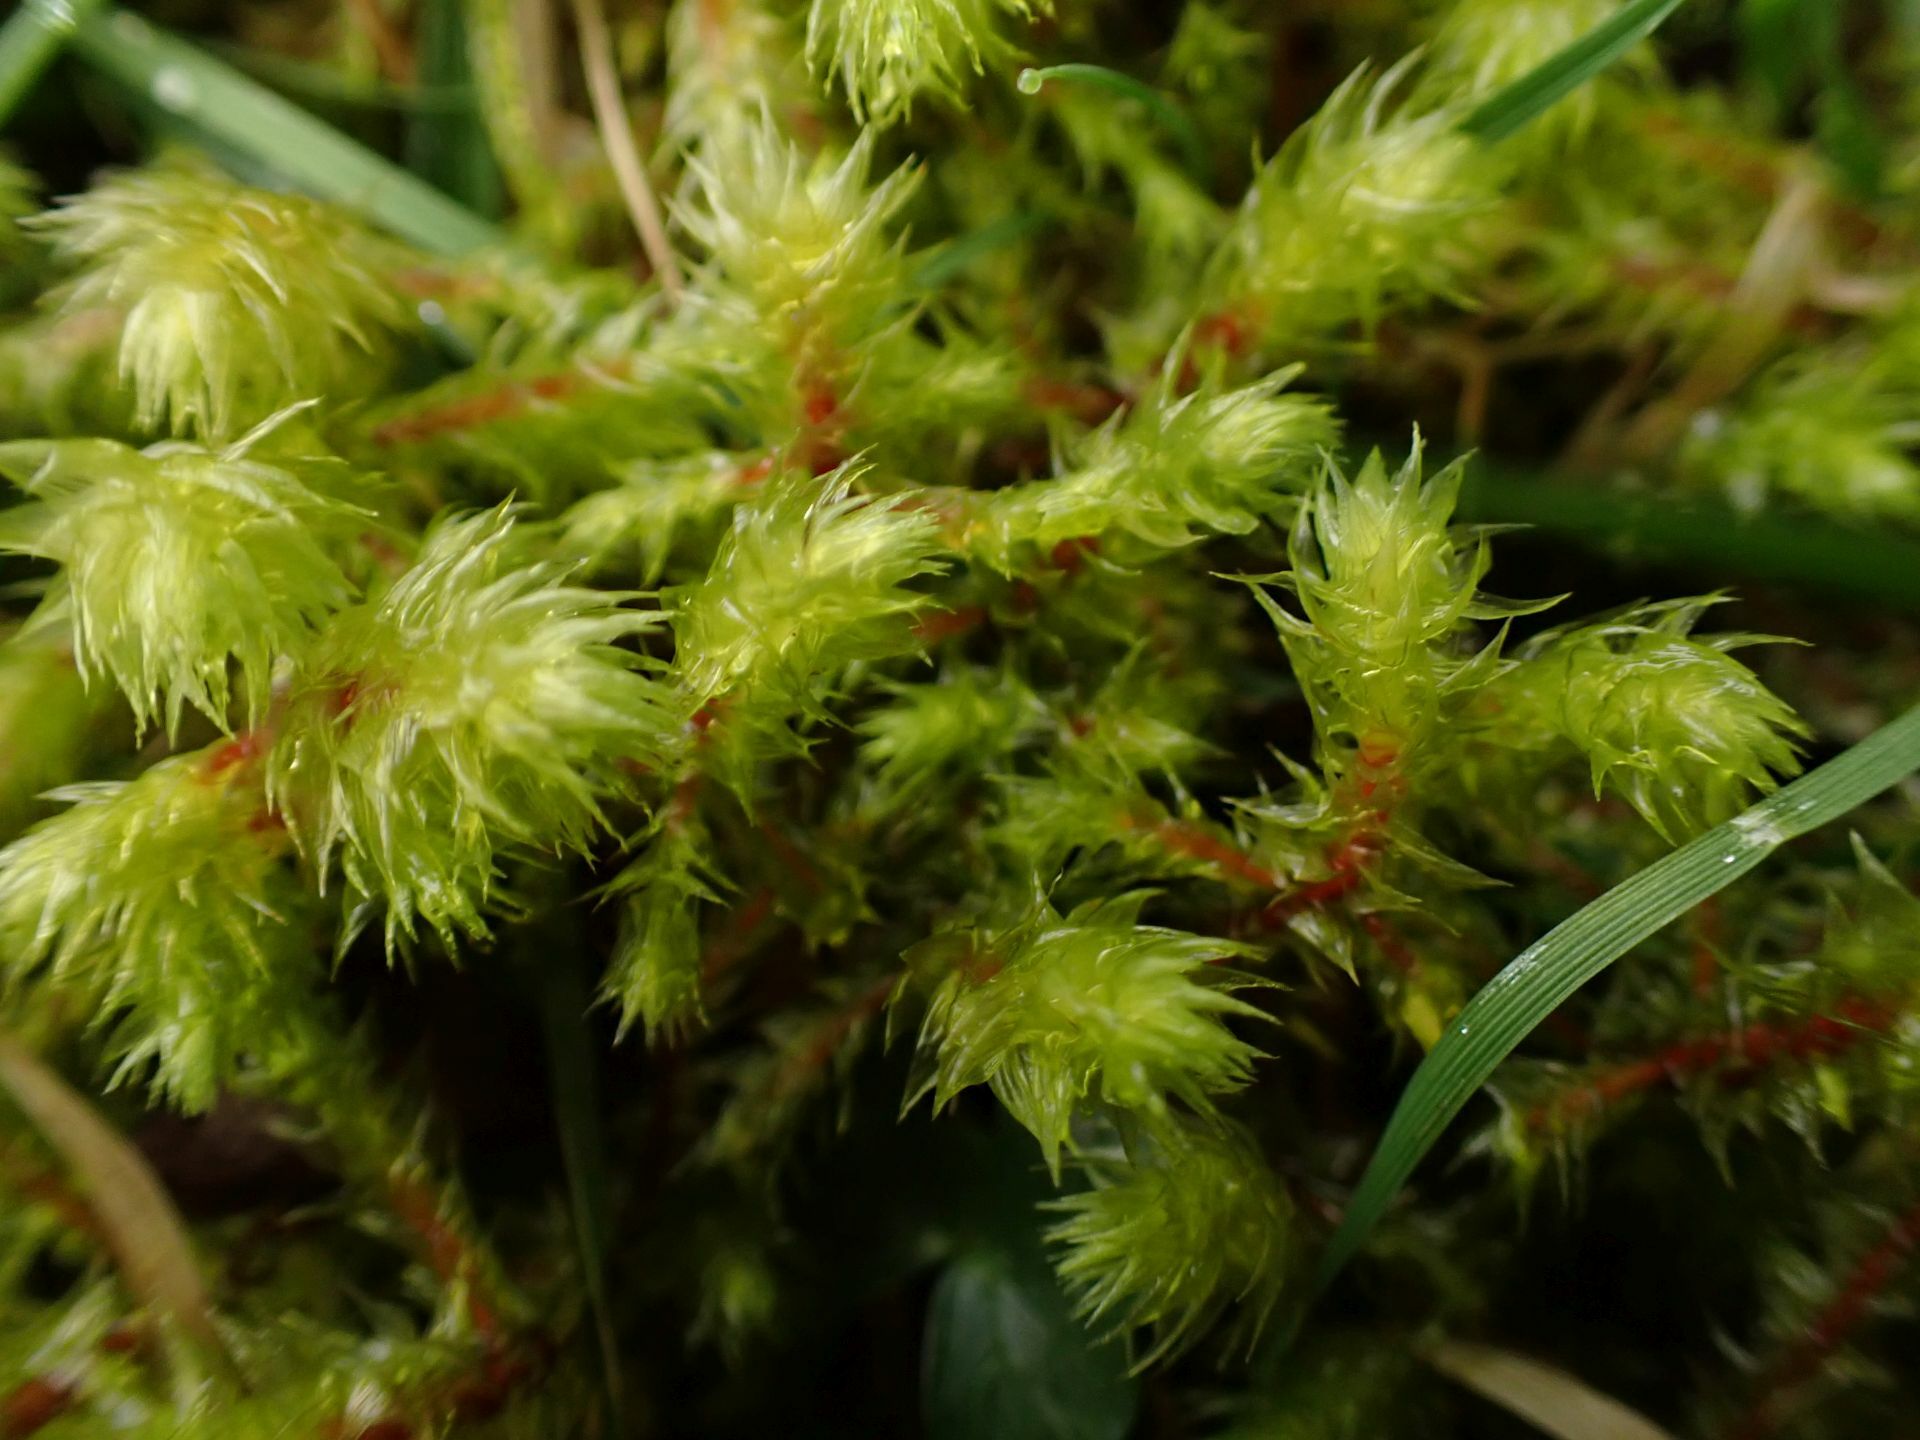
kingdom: Plantae
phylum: Bryophyta
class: Bryopsida
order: Hypnales
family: Hylocomiaceae
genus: Hylocomiadelphus
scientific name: Hylocomiadelphus triquetrus
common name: Rough goose neck moss
